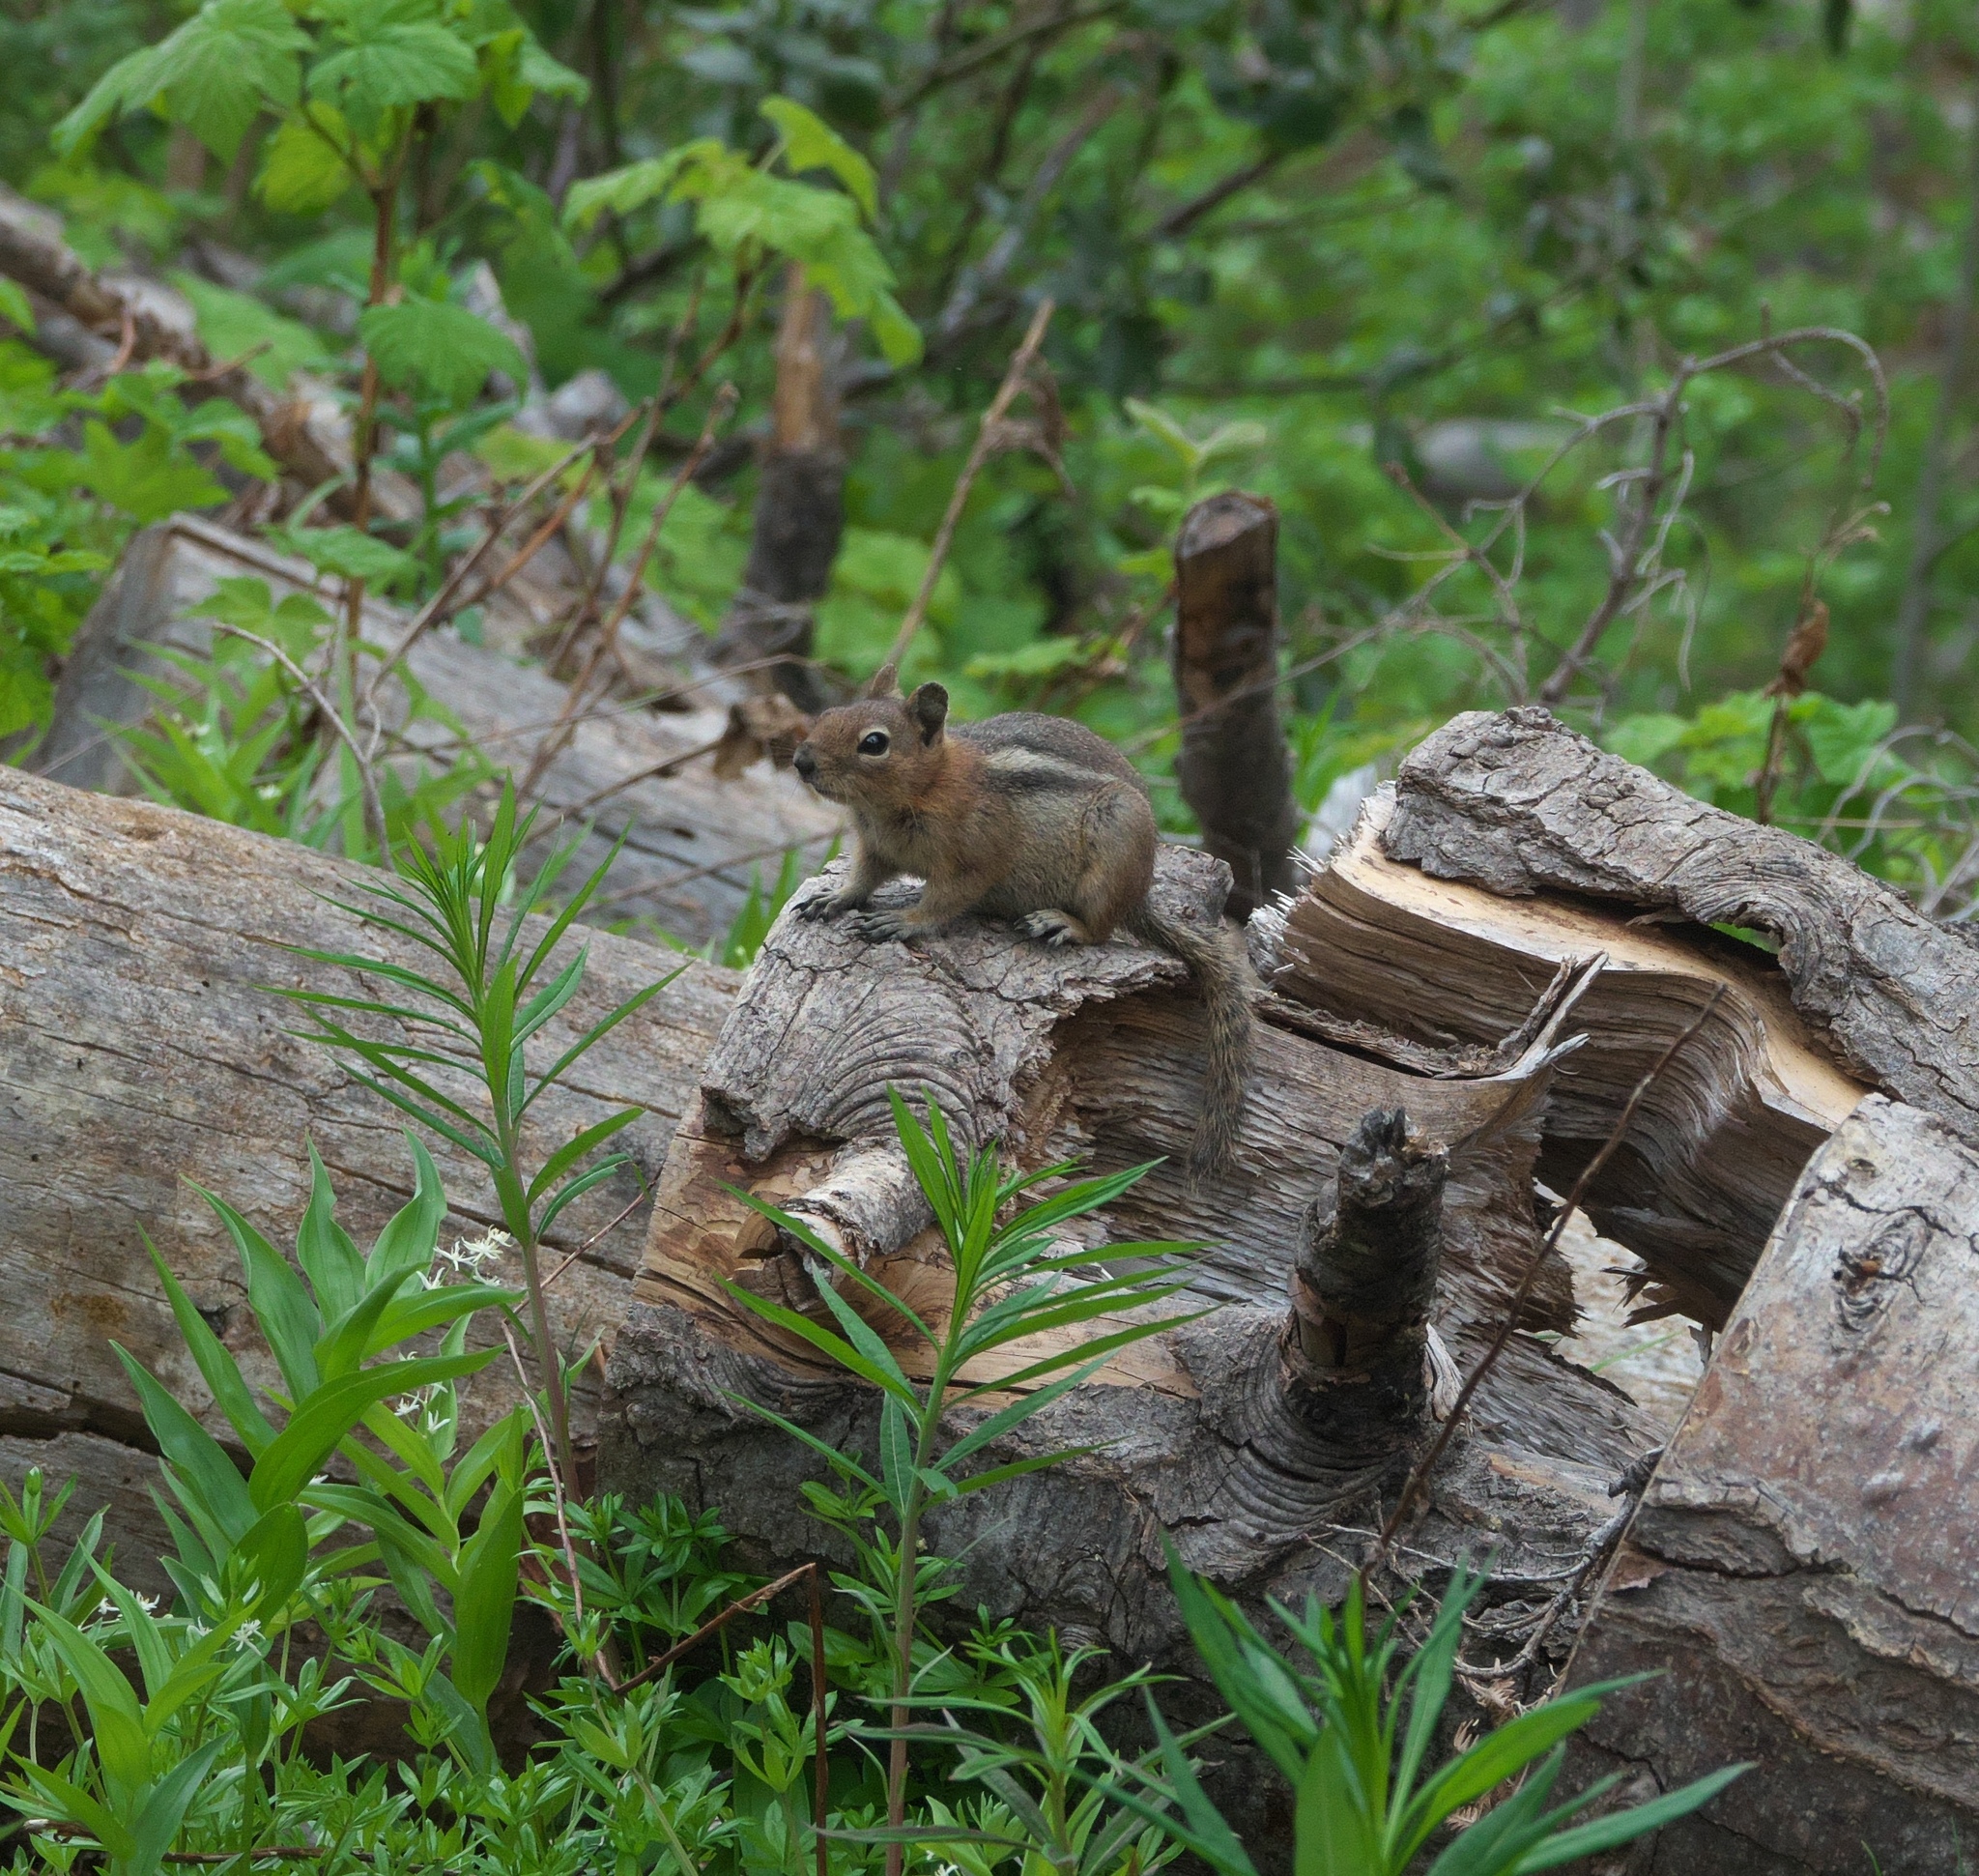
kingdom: Animalia
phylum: Chordata
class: Mammalia
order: Rodentia
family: Sciuridae
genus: Callospermophilus
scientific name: Callospermophilus saturatus
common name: Cascade golden-mantled ground squirrel
